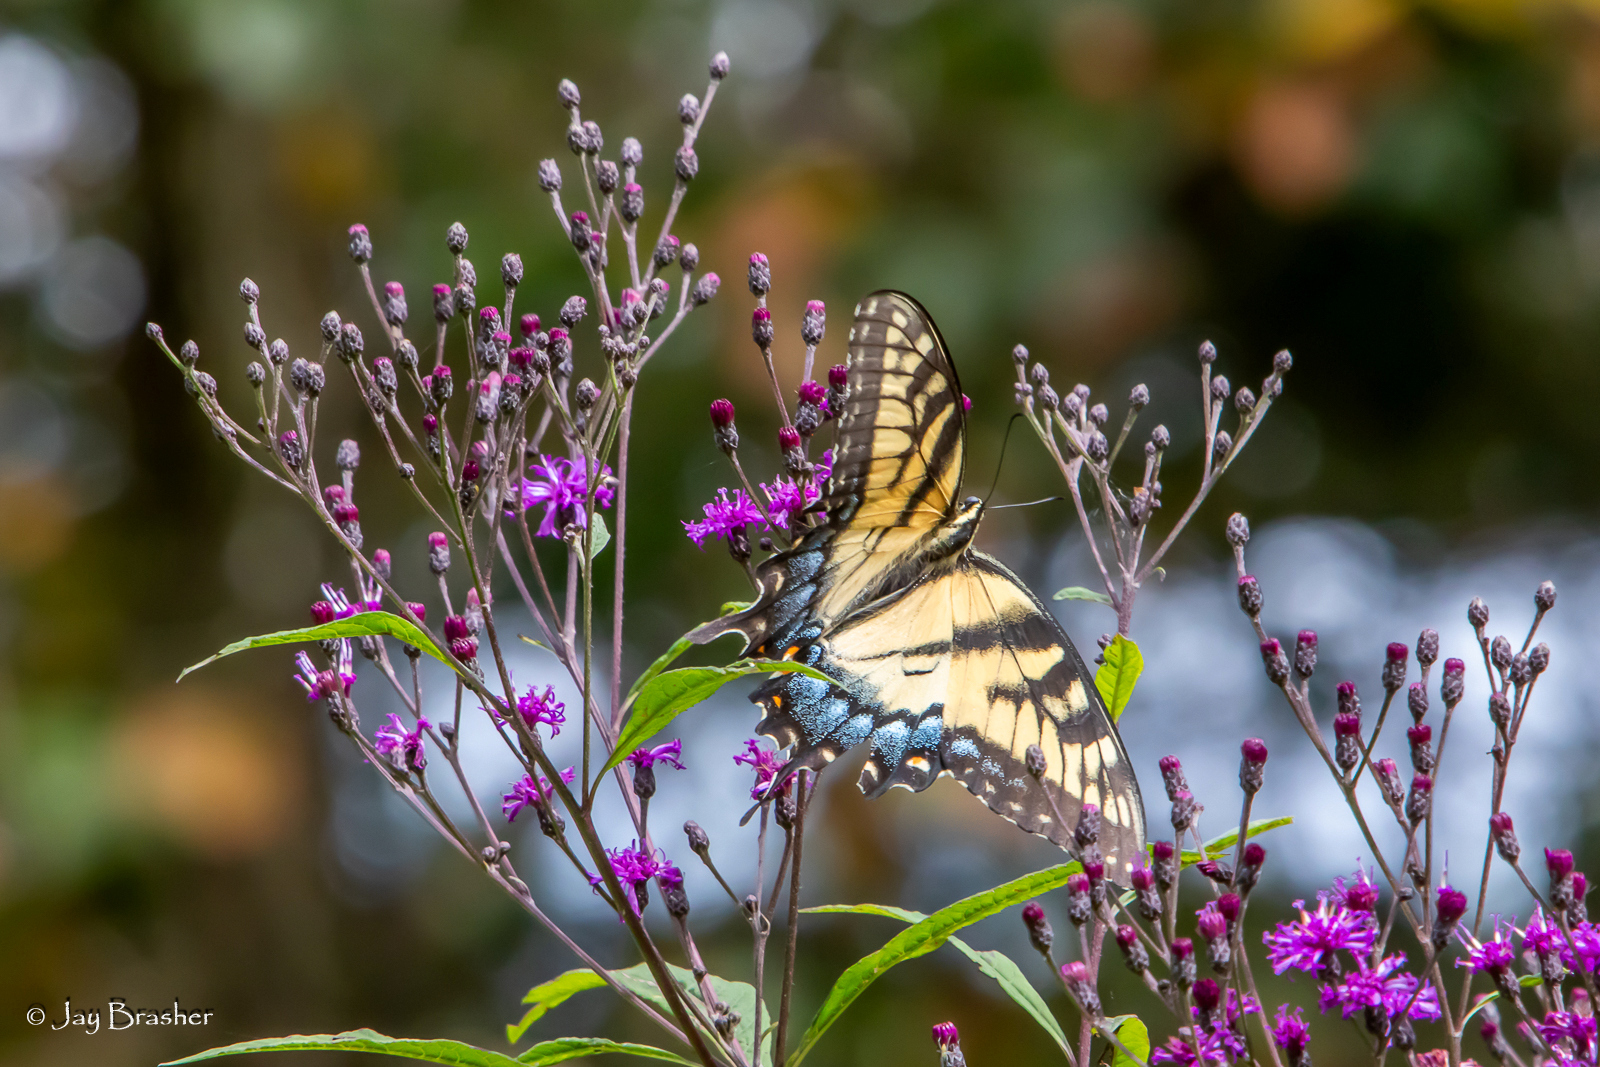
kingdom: Animalia
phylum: Arthropoda
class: Insecta
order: Lepidoptera
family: Papilionidae
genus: Papilio
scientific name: Papilio glaucus
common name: Tiger swallowtail
